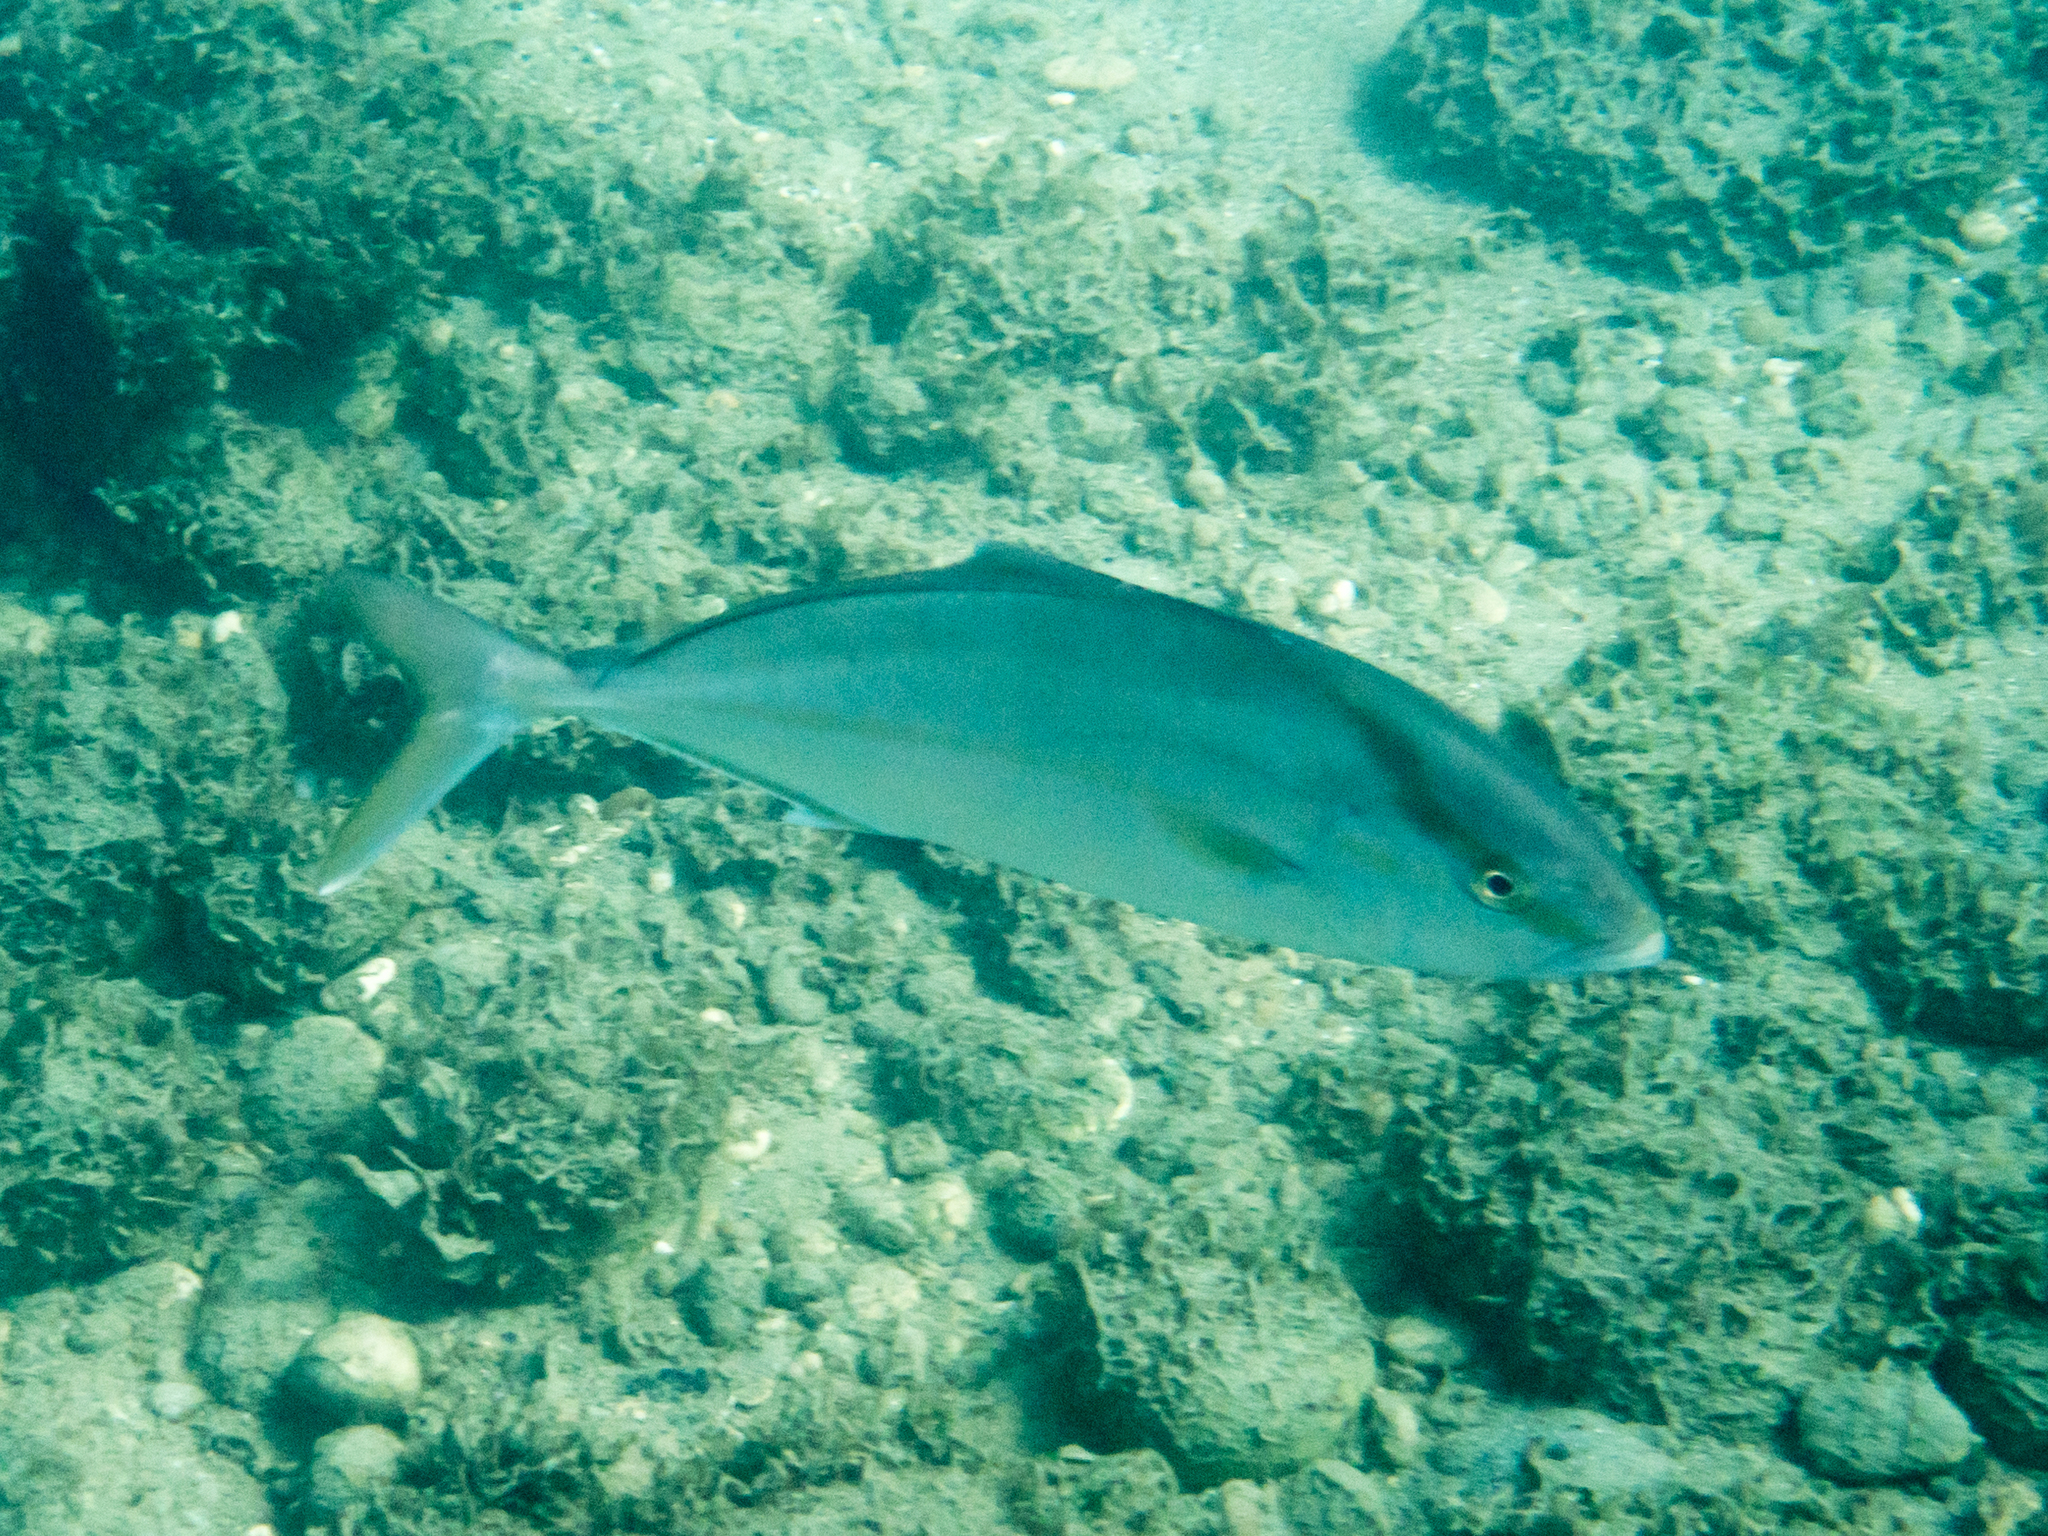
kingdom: Animalia
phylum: Chordata
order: Perciformes
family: Carangidae
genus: Seriola
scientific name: Seriola dumerili
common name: Greater amberjack
